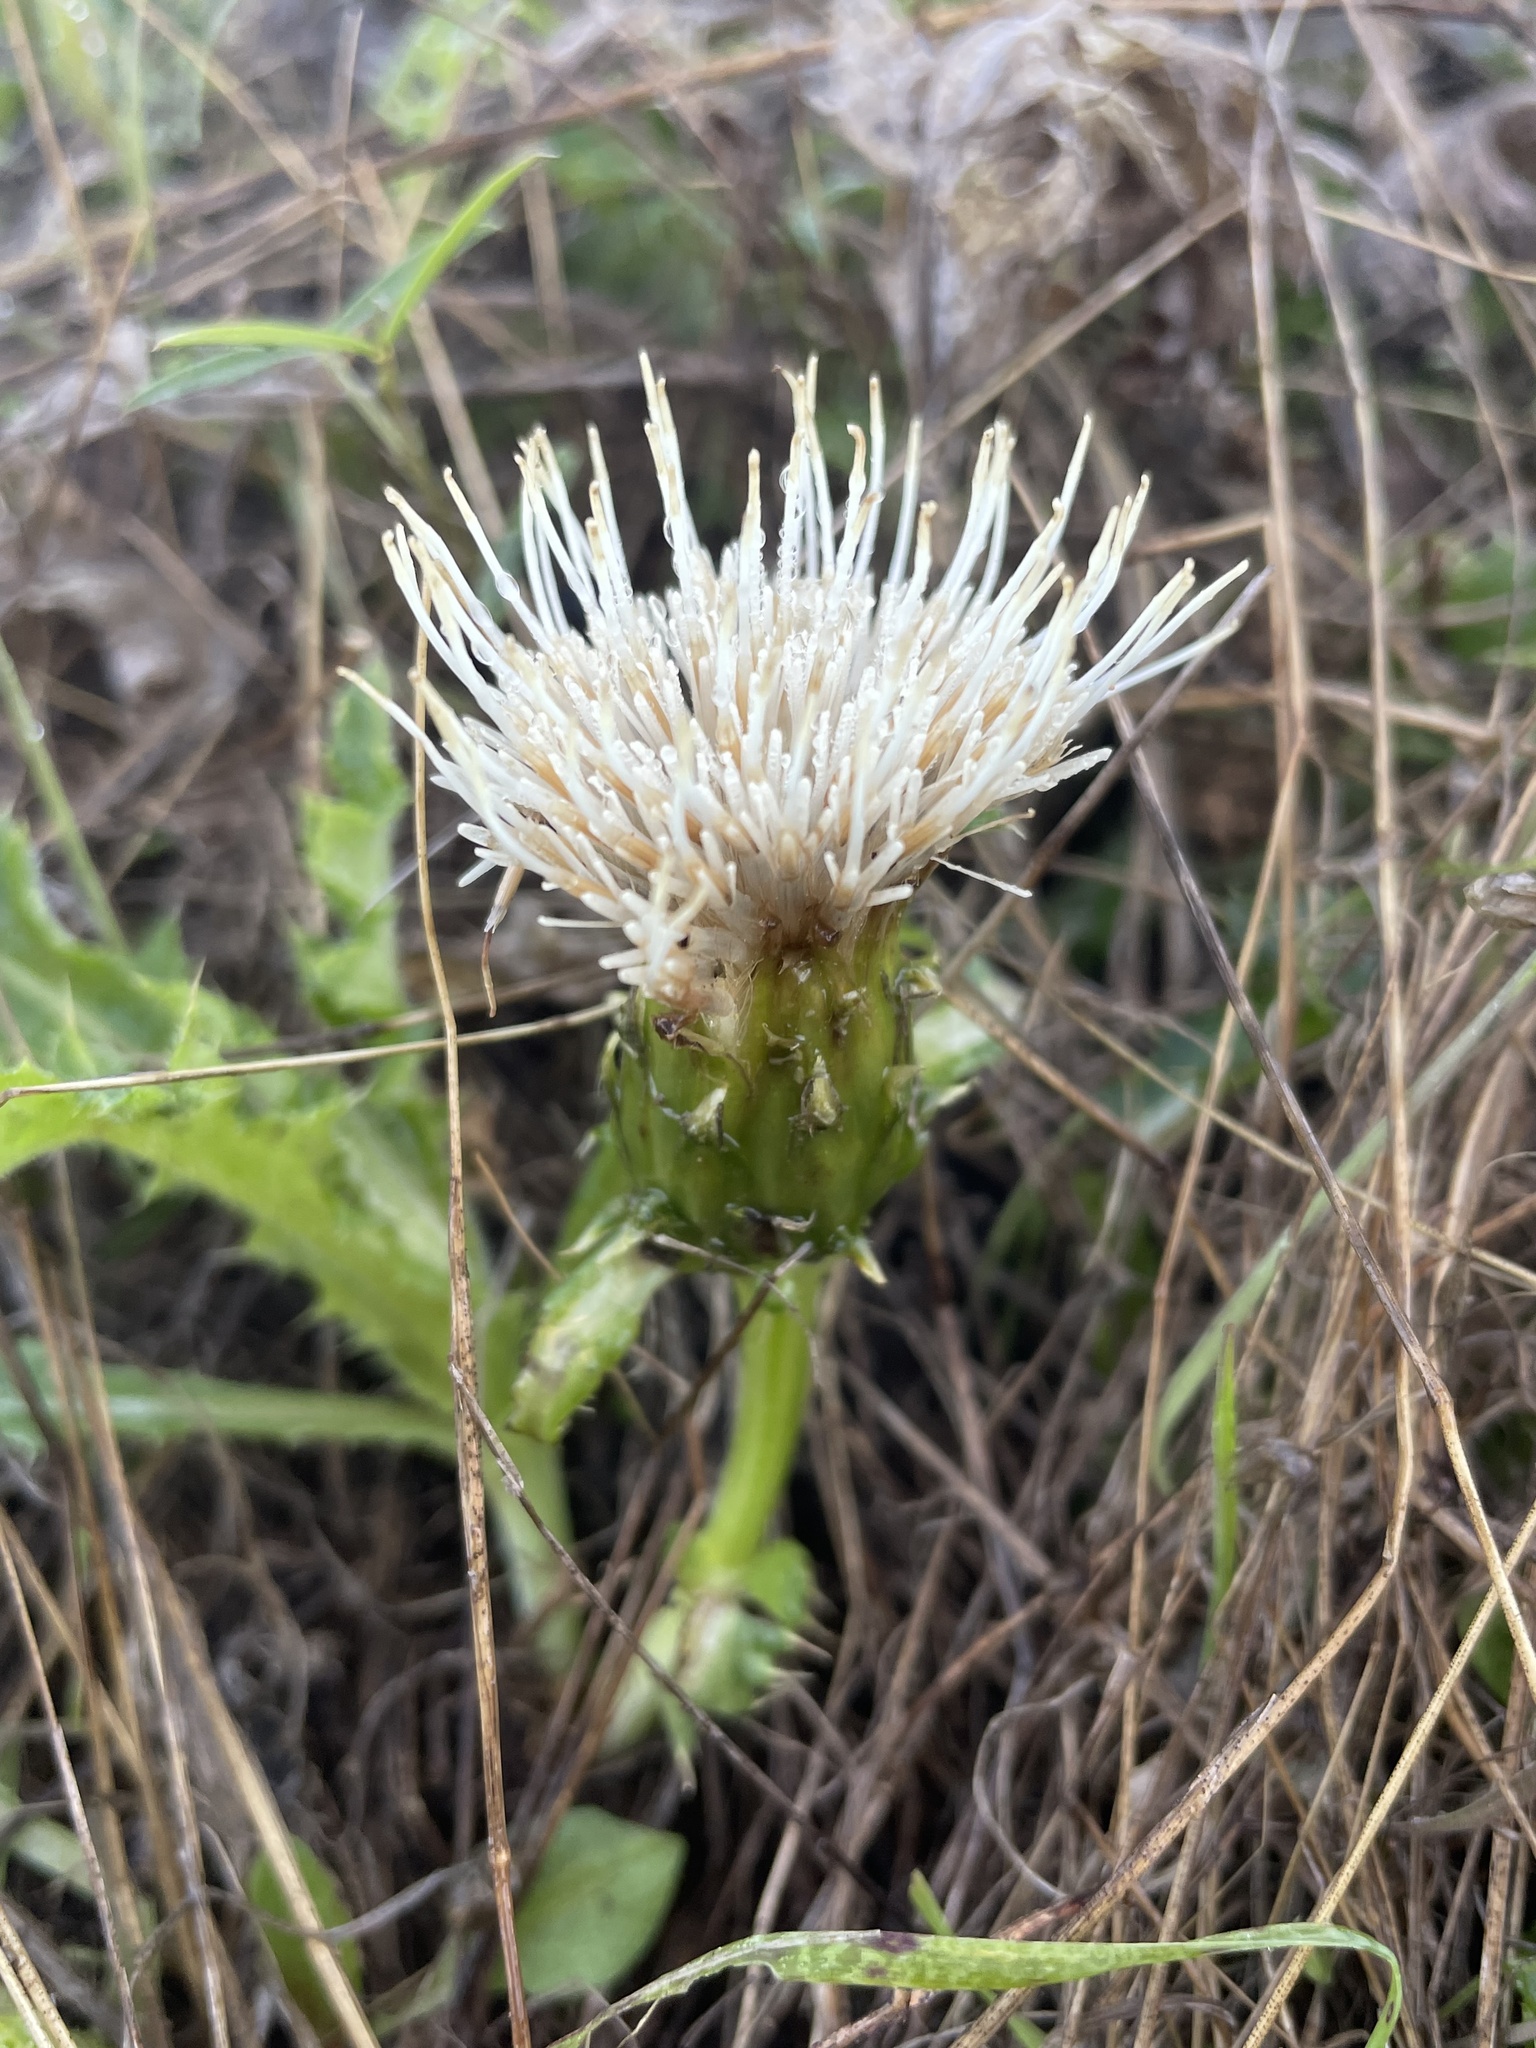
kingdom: Plantae
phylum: Tracheophyta
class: Magnoliopsida
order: Asterales
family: Asteraceae
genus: Cirsium
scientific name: Cirsium quercetorum
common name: Alameda county thistle
